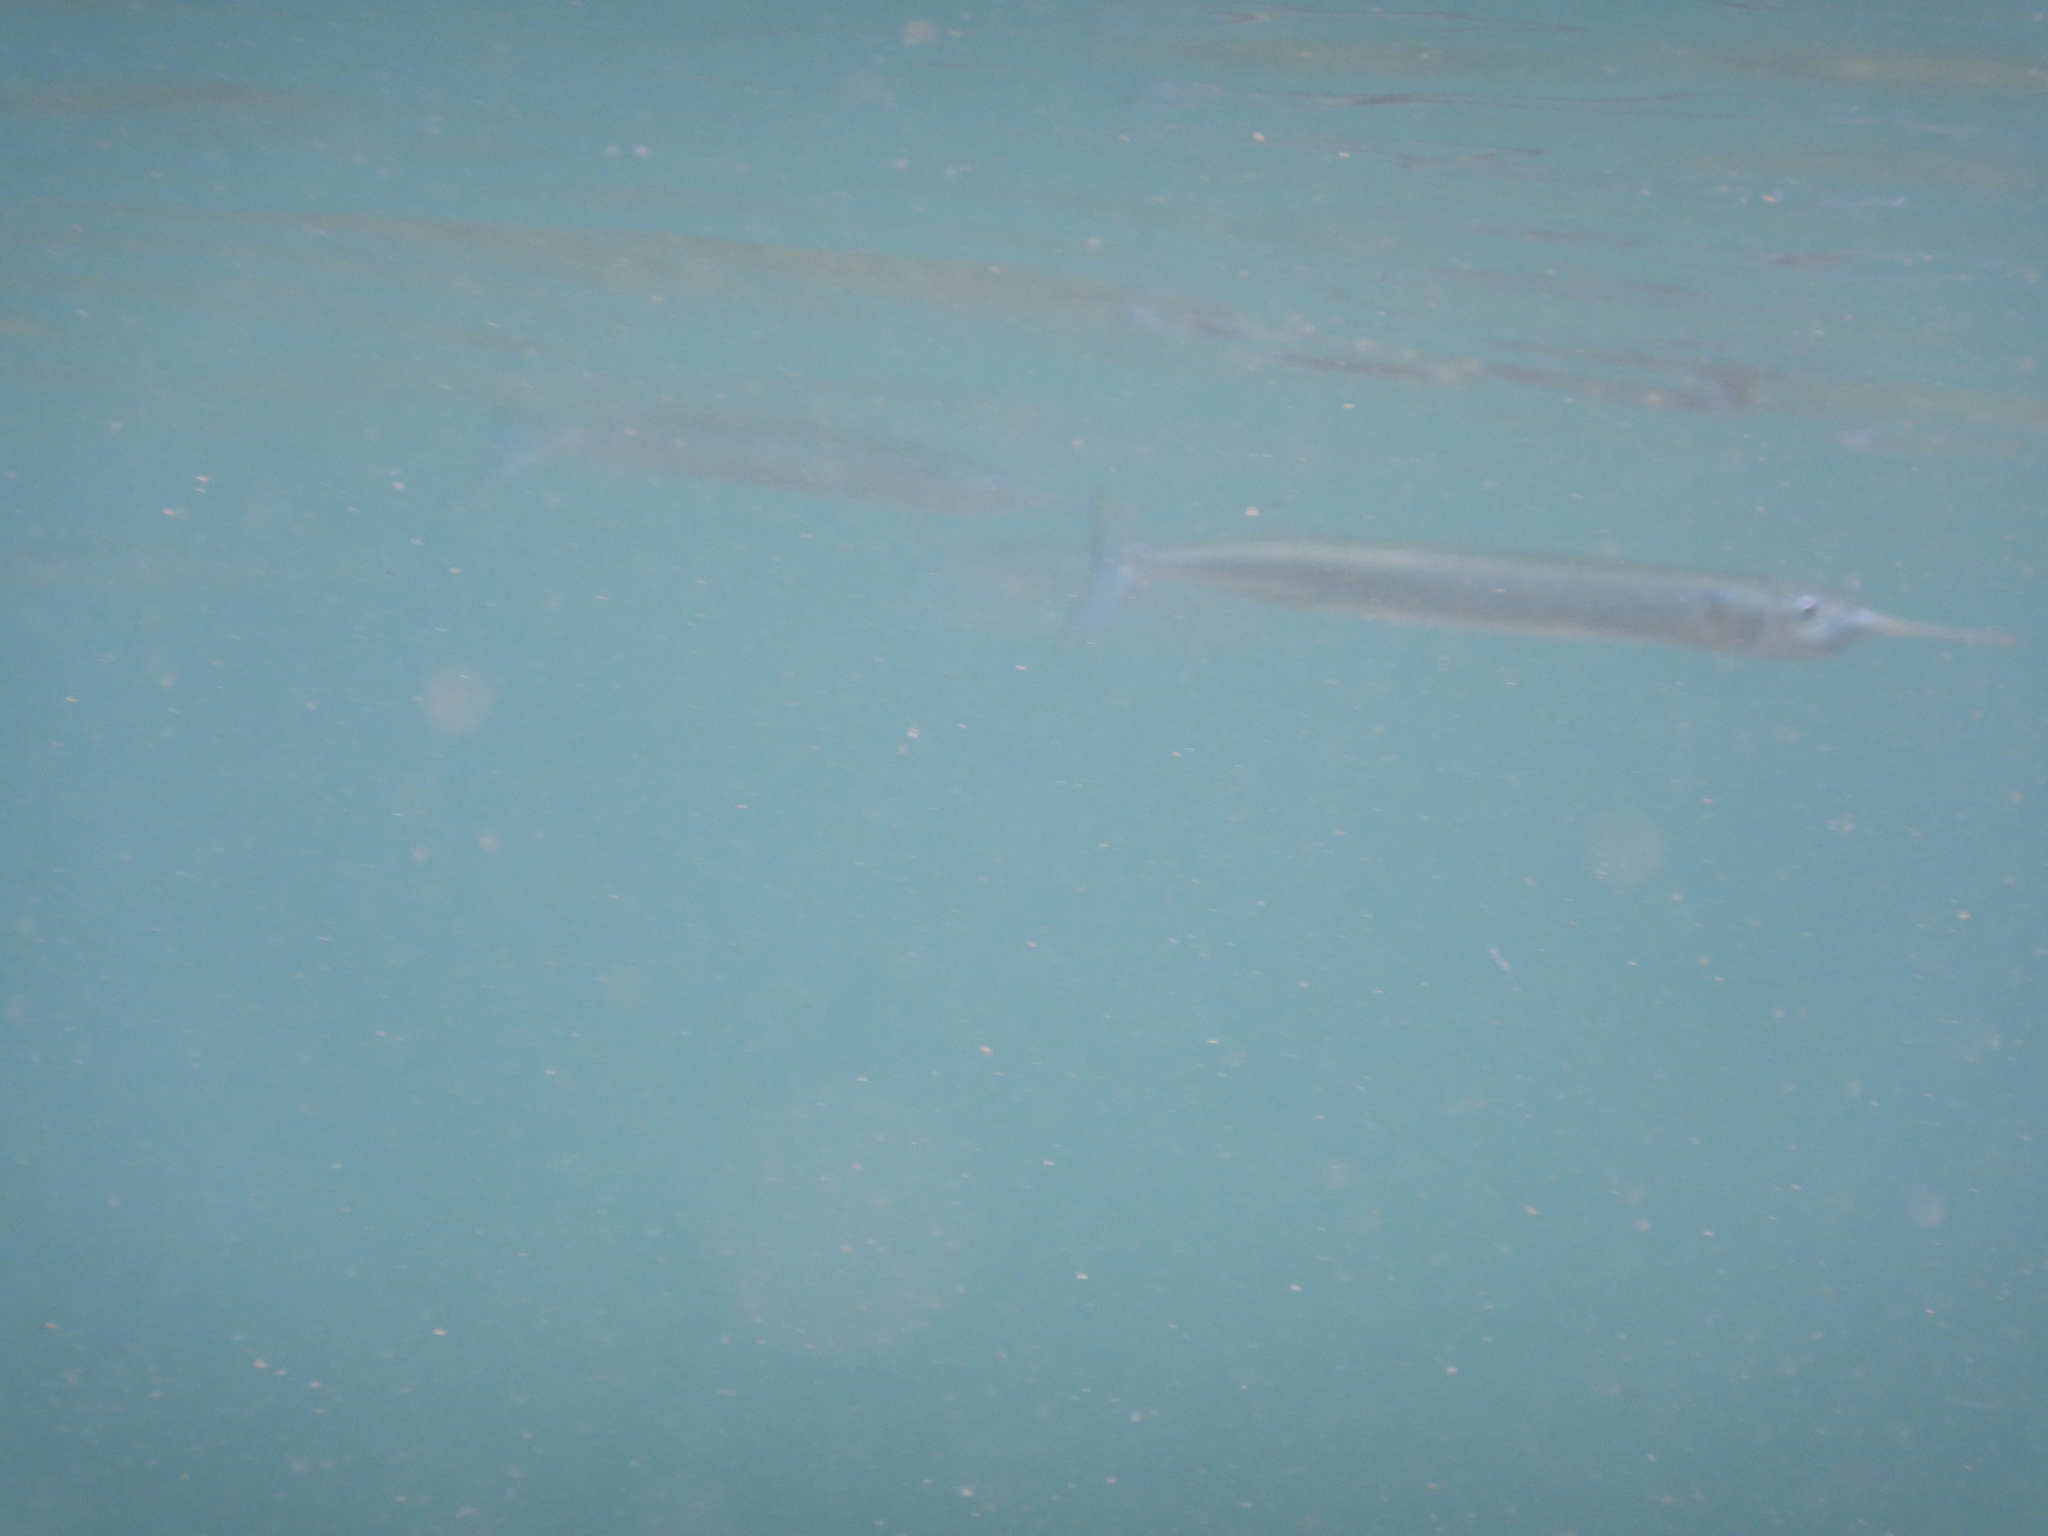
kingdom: Animalia
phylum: Chordata
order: Beloniformes
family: Hemiramphidae
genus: Hyporhamphus
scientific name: Hyporhamphus ihi
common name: Garfish
